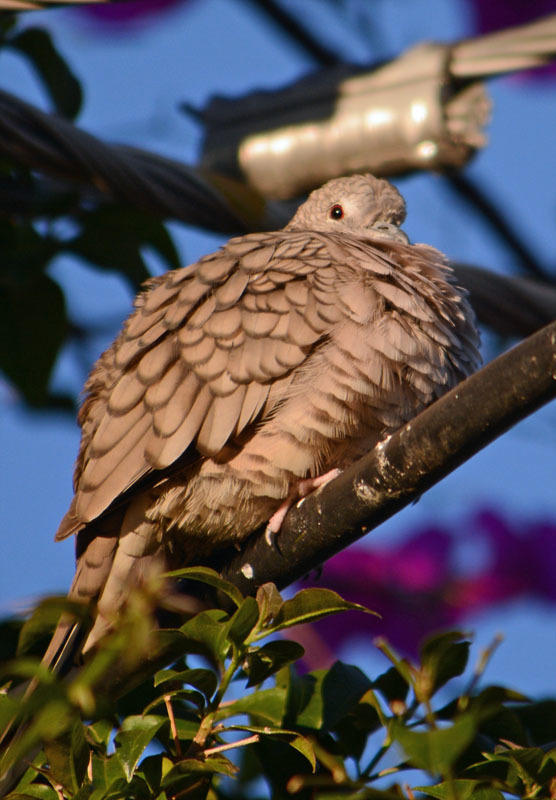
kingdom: Animalia
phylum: Chordata
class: Aves
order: Columbiformes
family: Columbidae
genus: Columbina
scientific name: Columbina inca
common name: Inca dove
